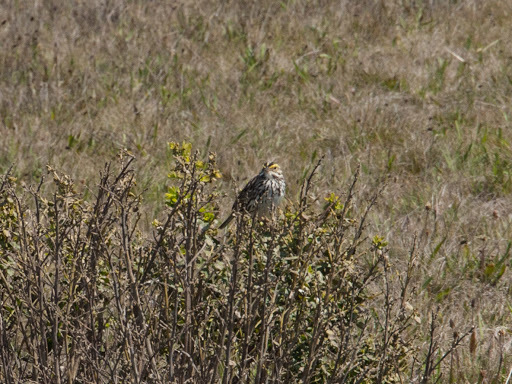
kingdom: Animalia
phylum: Chordata
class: Aves
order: Passeriformes
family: Passerellidae
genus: Passerculus
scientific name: Passerculus sandwichensis
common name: Savannah sparrow
